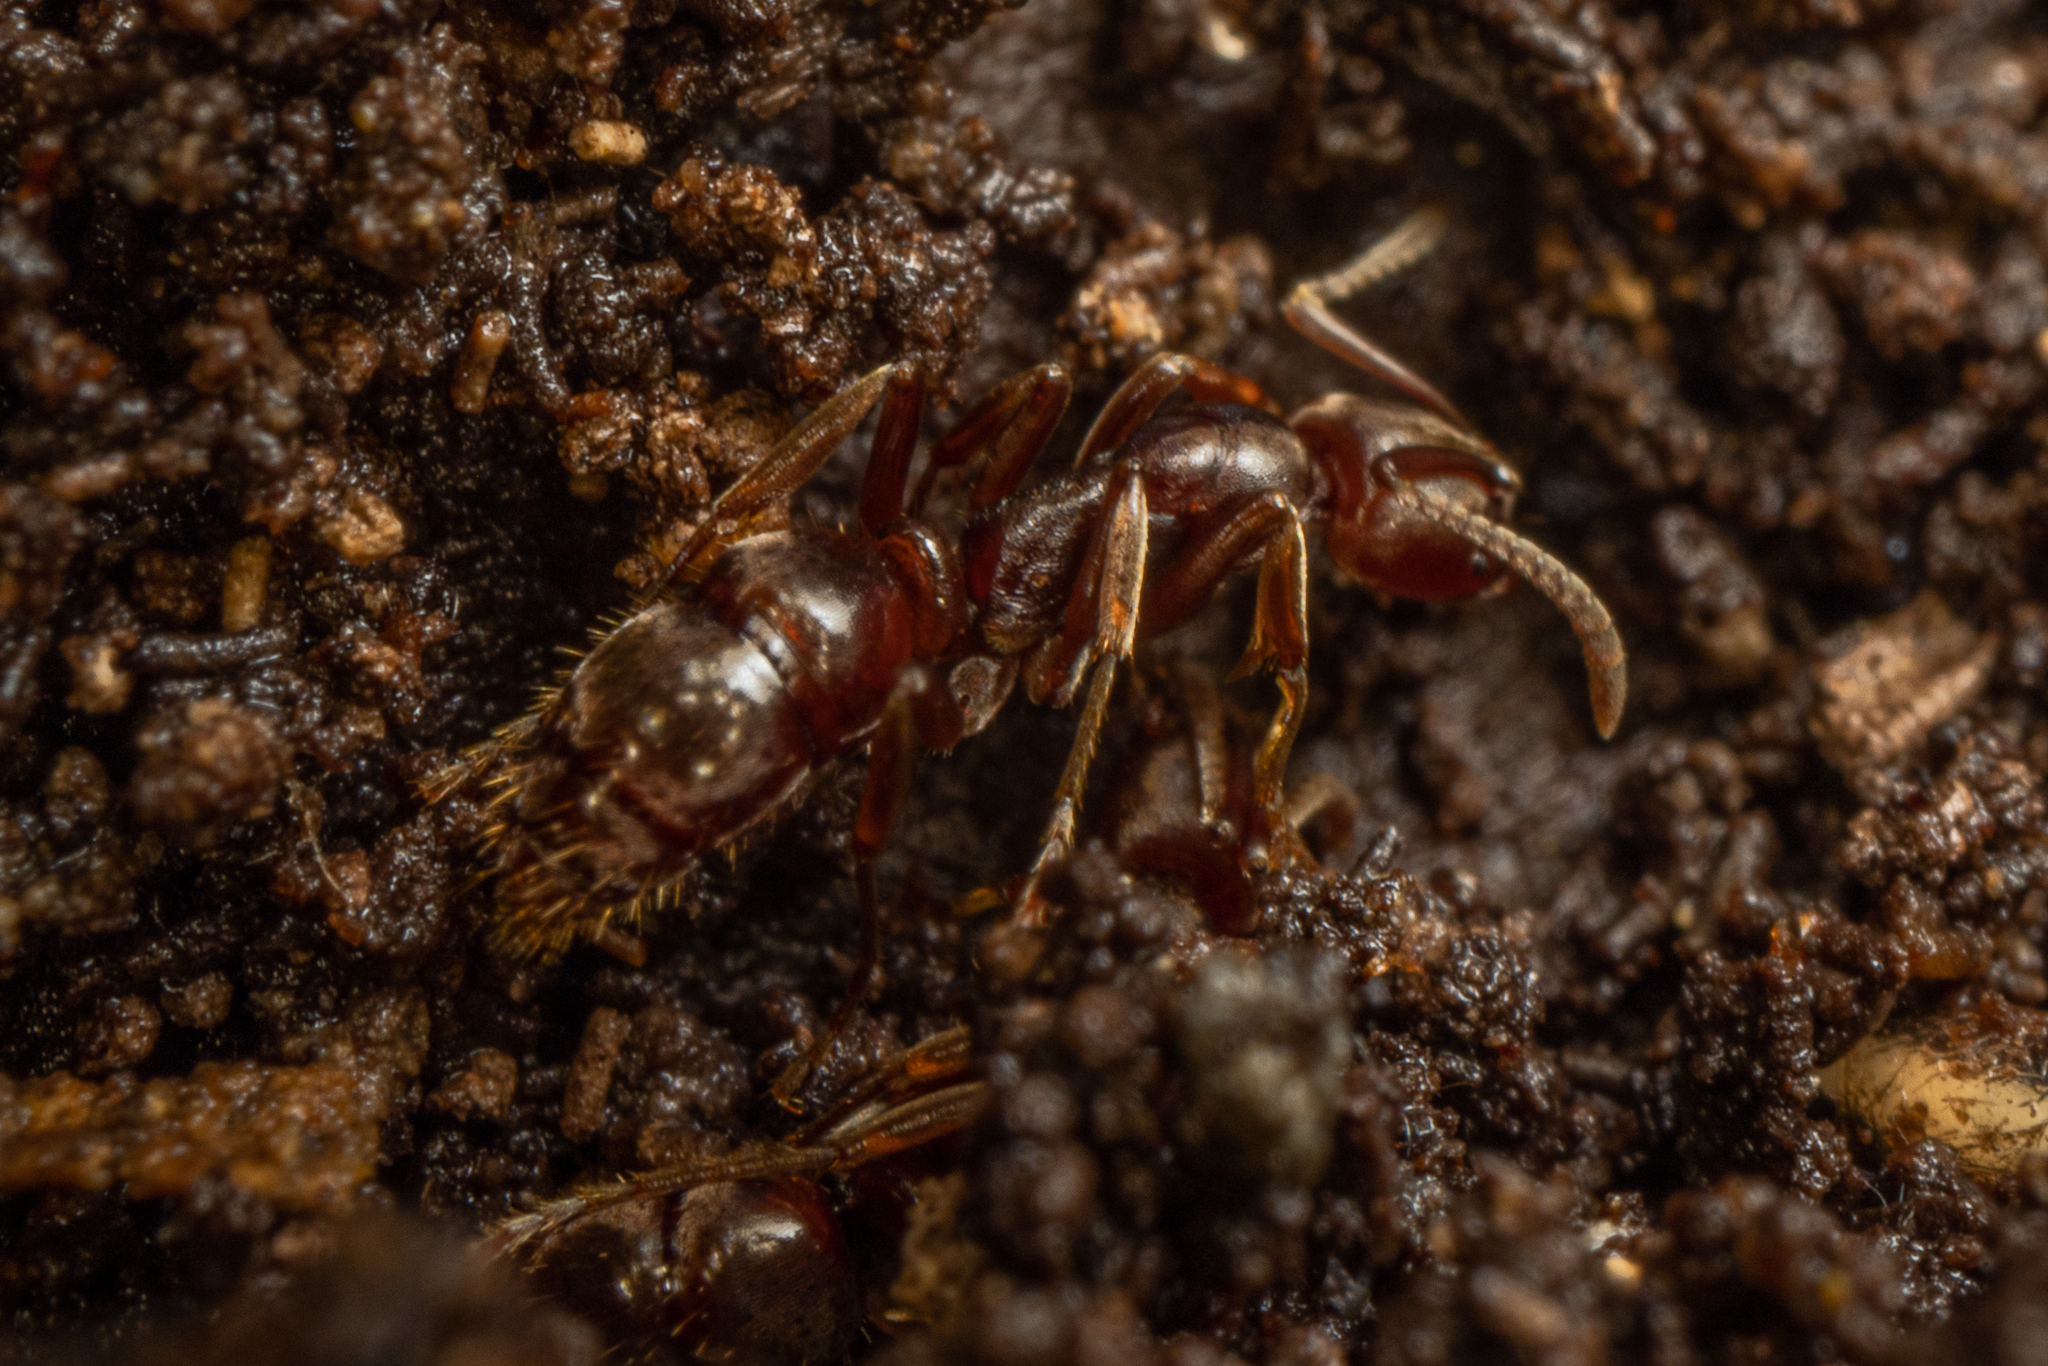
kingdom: Animalia
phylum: Arthropoda
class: Insecta
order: Hymenoptera
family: Formicidae
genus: Austroponera
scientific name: Austroponera
